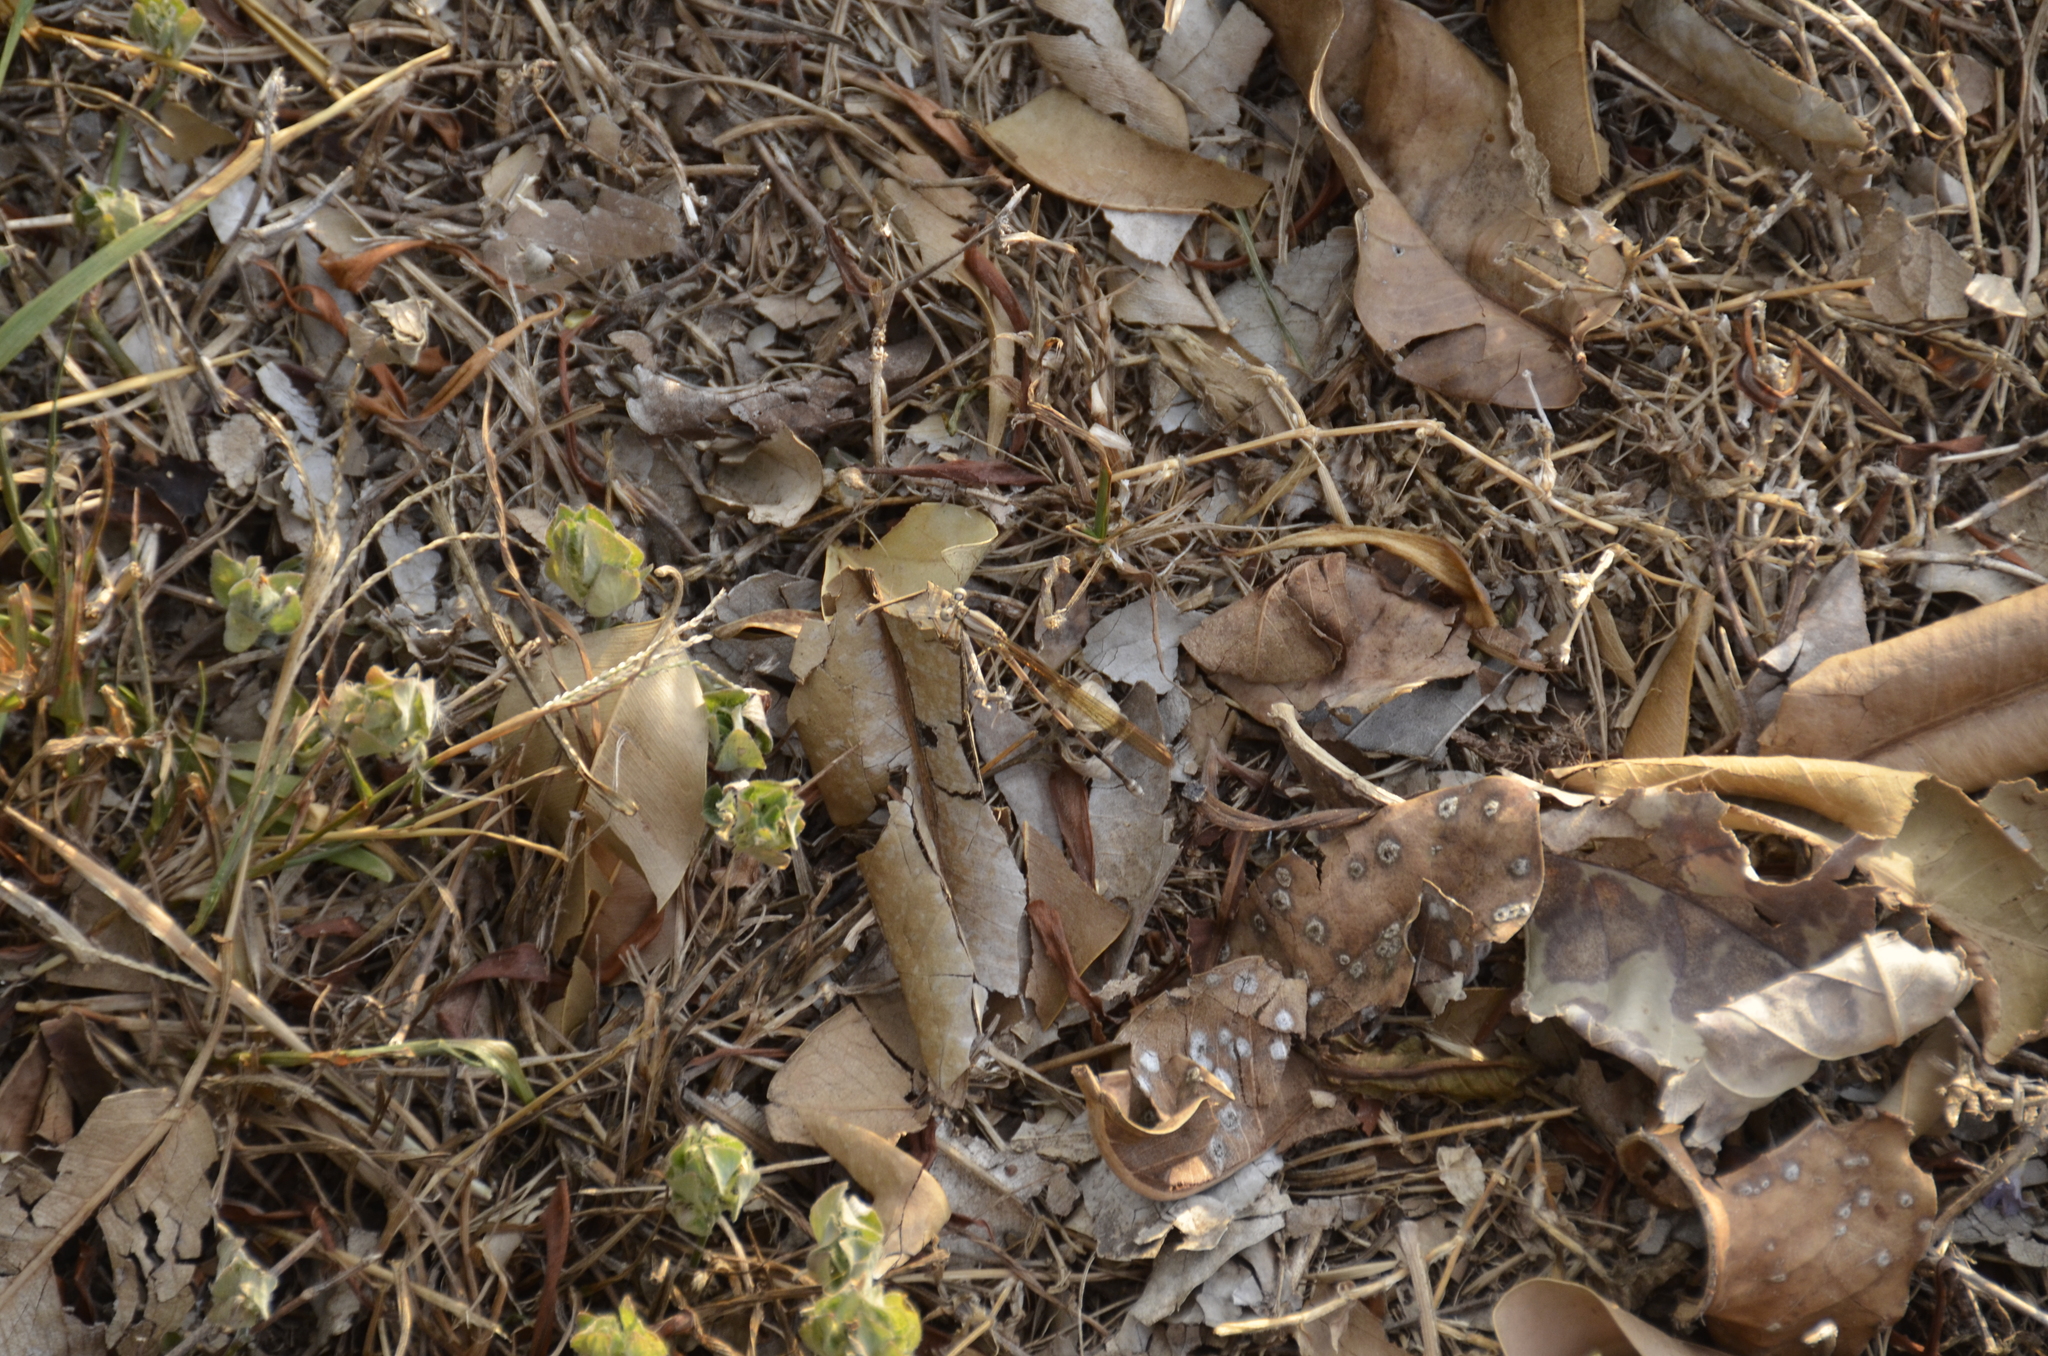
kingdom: Animalia
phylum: Arthropoda
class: Insecta
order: Odonata
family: Coenagrionidae
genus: Argia
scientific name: Argia anceps
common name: Cerulean dancer
